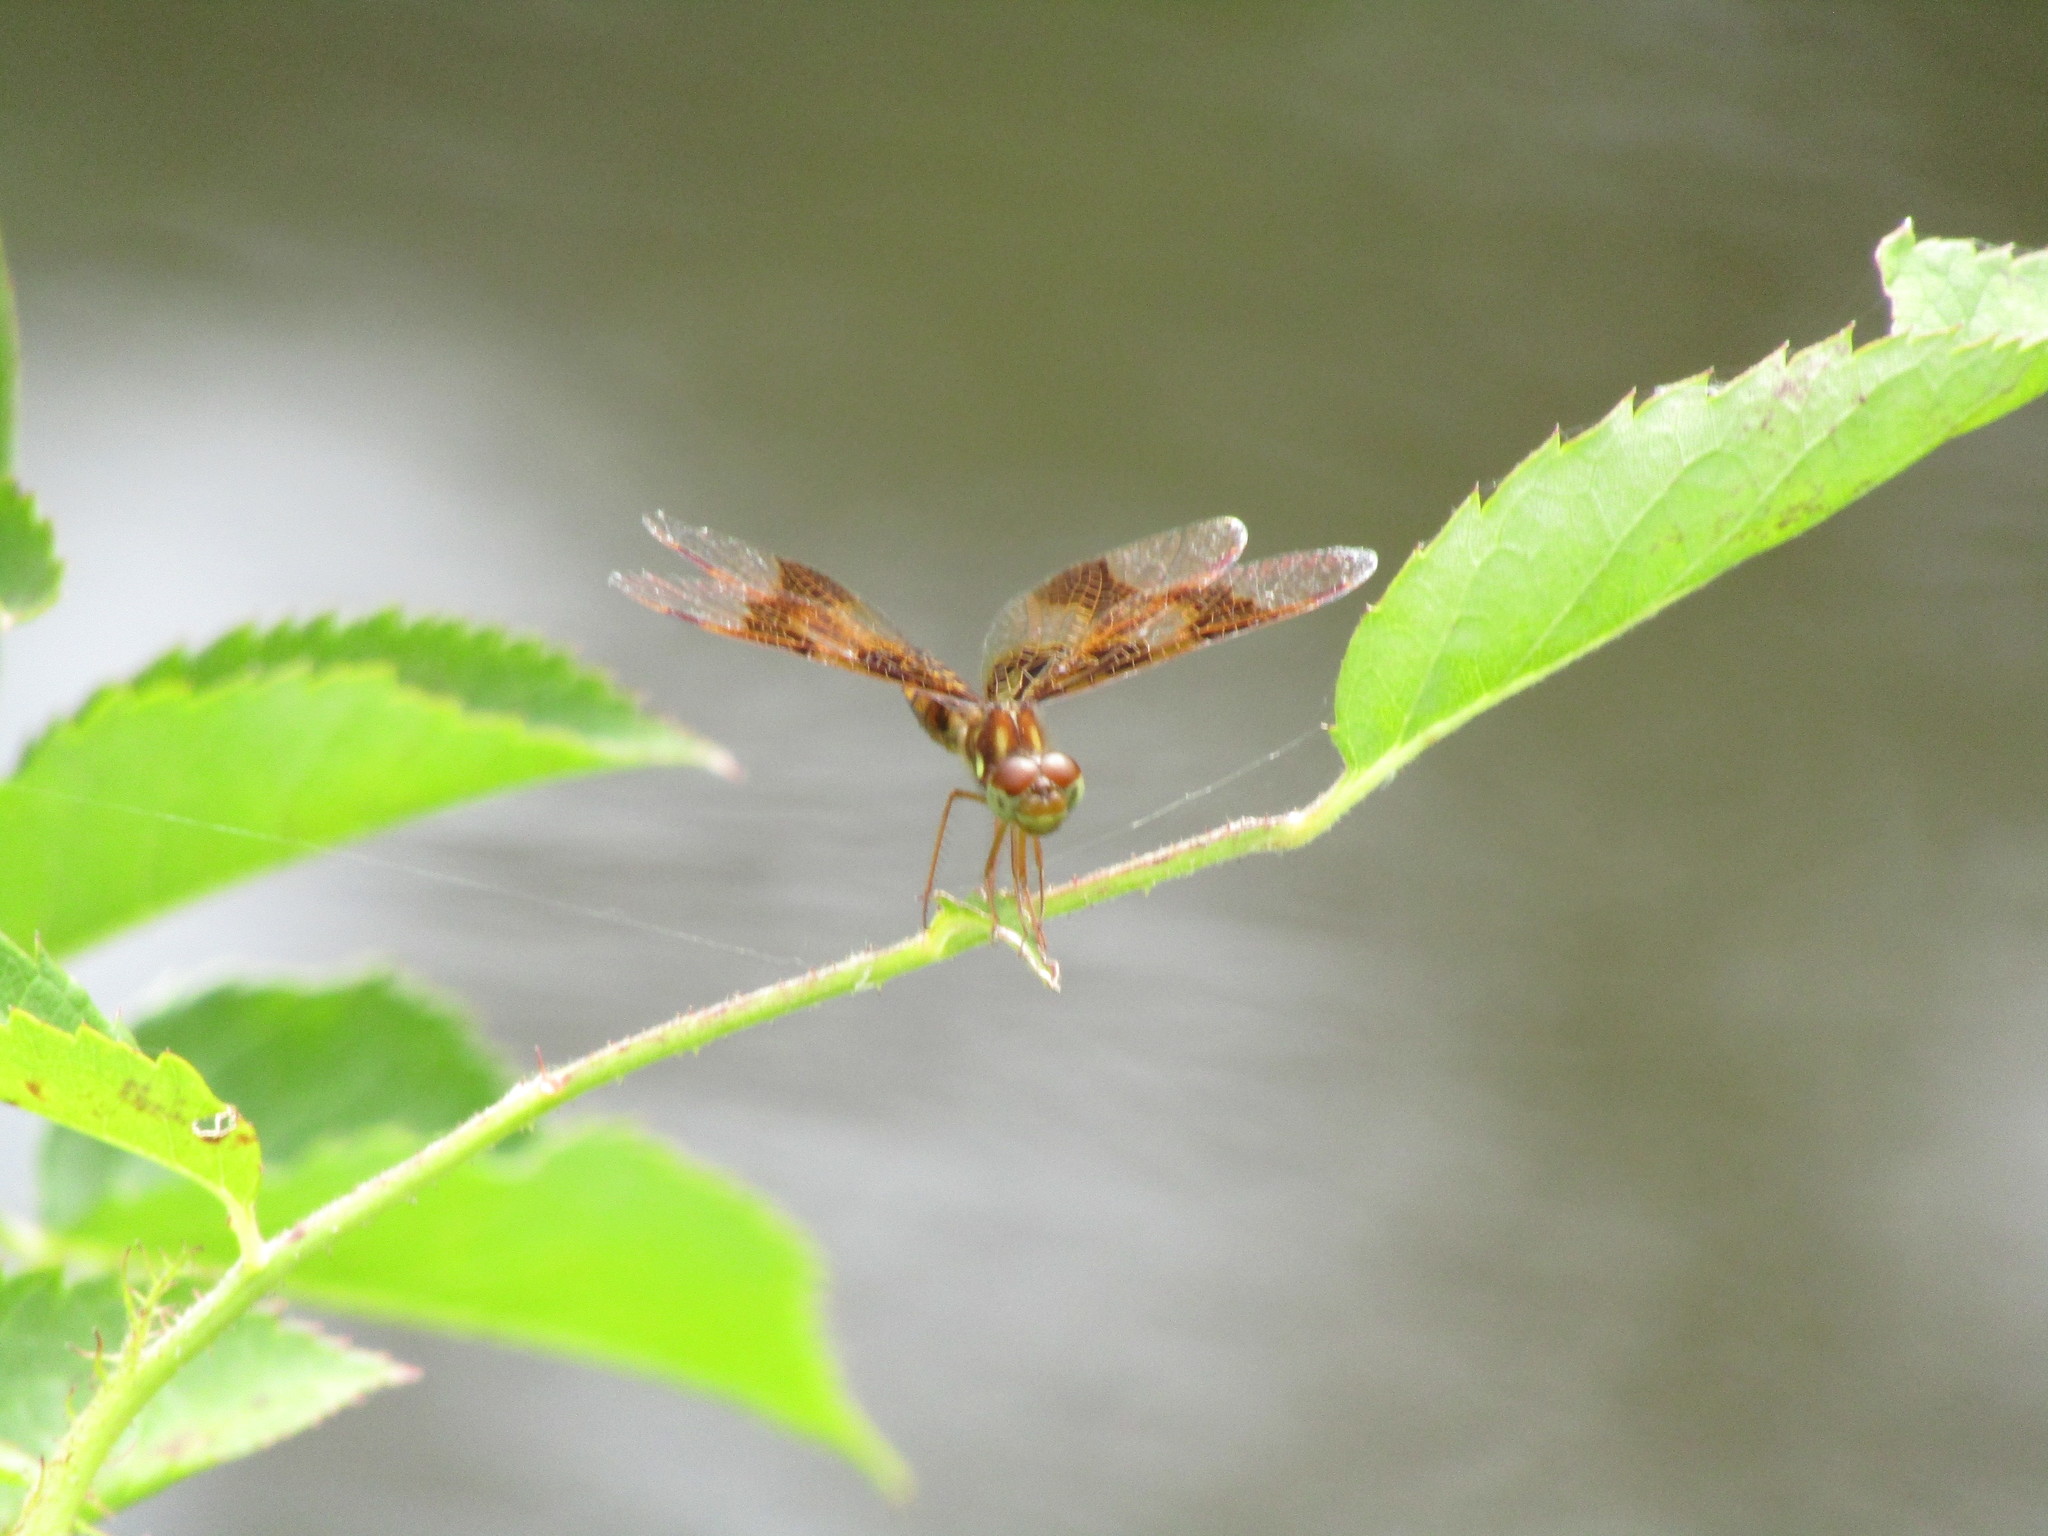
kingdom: Animalia
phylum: Arthropoda
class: Insecta
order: Odonata
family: Libellulidae
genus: Perithemis
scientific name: Perithemis tenera
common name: Eastern amberwing
